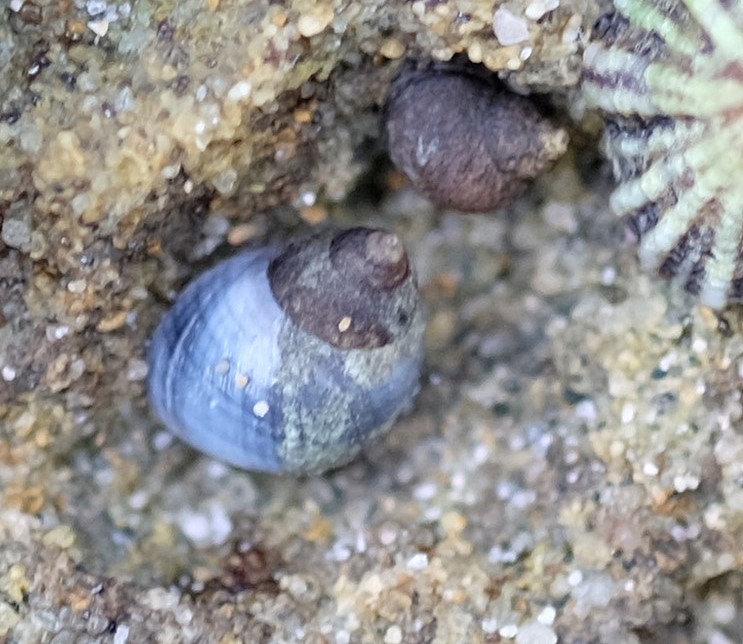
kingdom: Animalia
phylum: Mollusca
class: Gastropoda
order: Littorinimorpha
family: Littorinidae
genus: Austrolittorina
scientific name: Austrolittorina unifasciata
